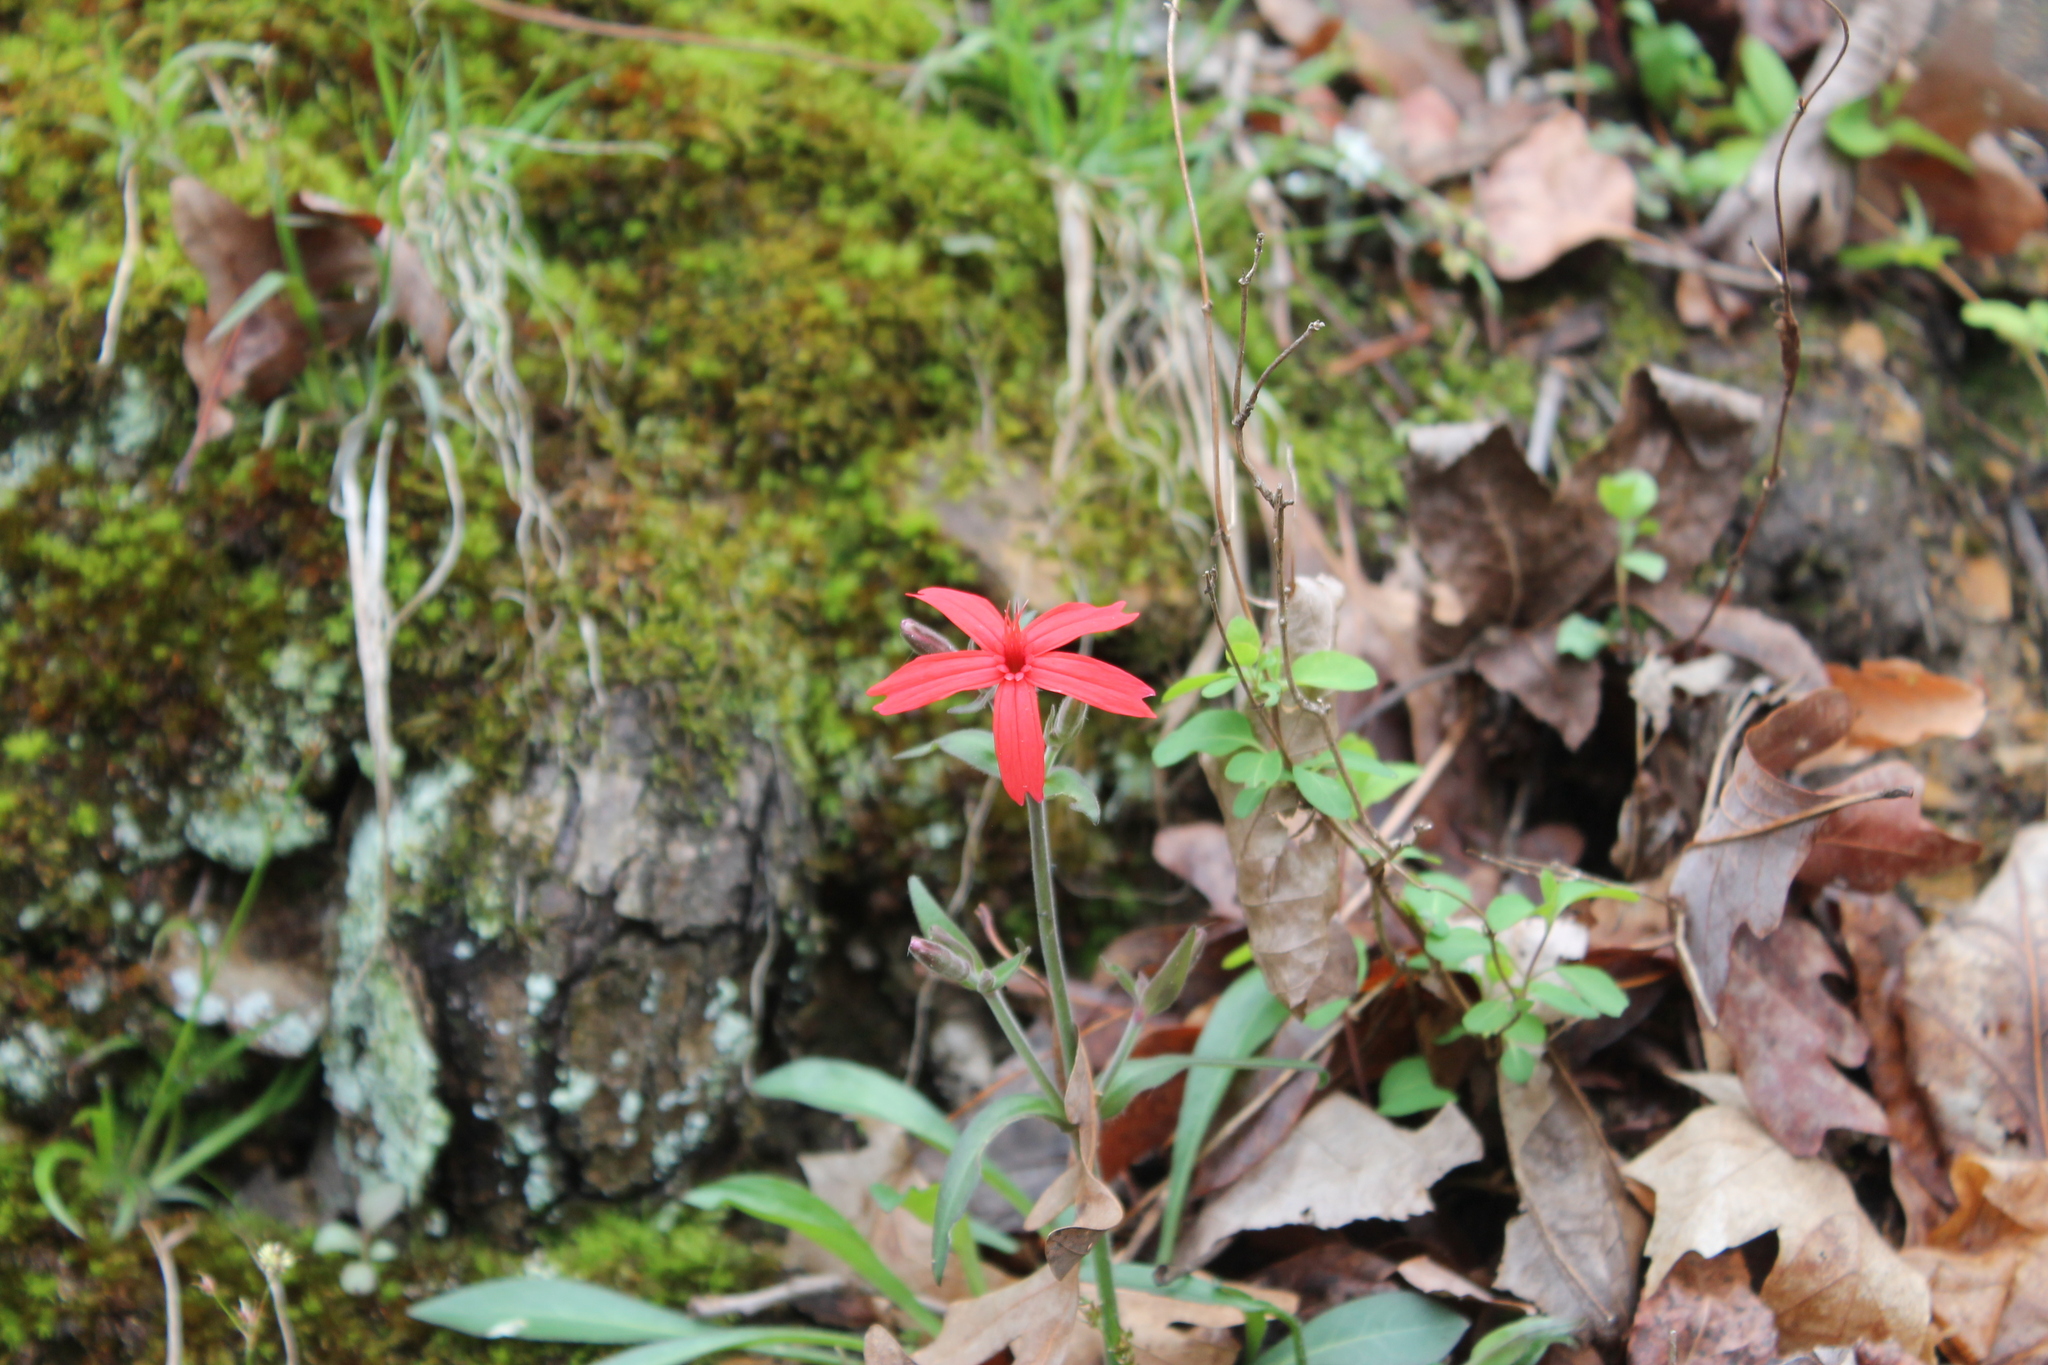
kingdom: Plantae
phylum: Tracheophyta
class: Magnoliopsida
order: Caryophyllales
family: Caryophyllaceae
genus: Silene
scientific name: Silene virginica
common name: Fire-pink
